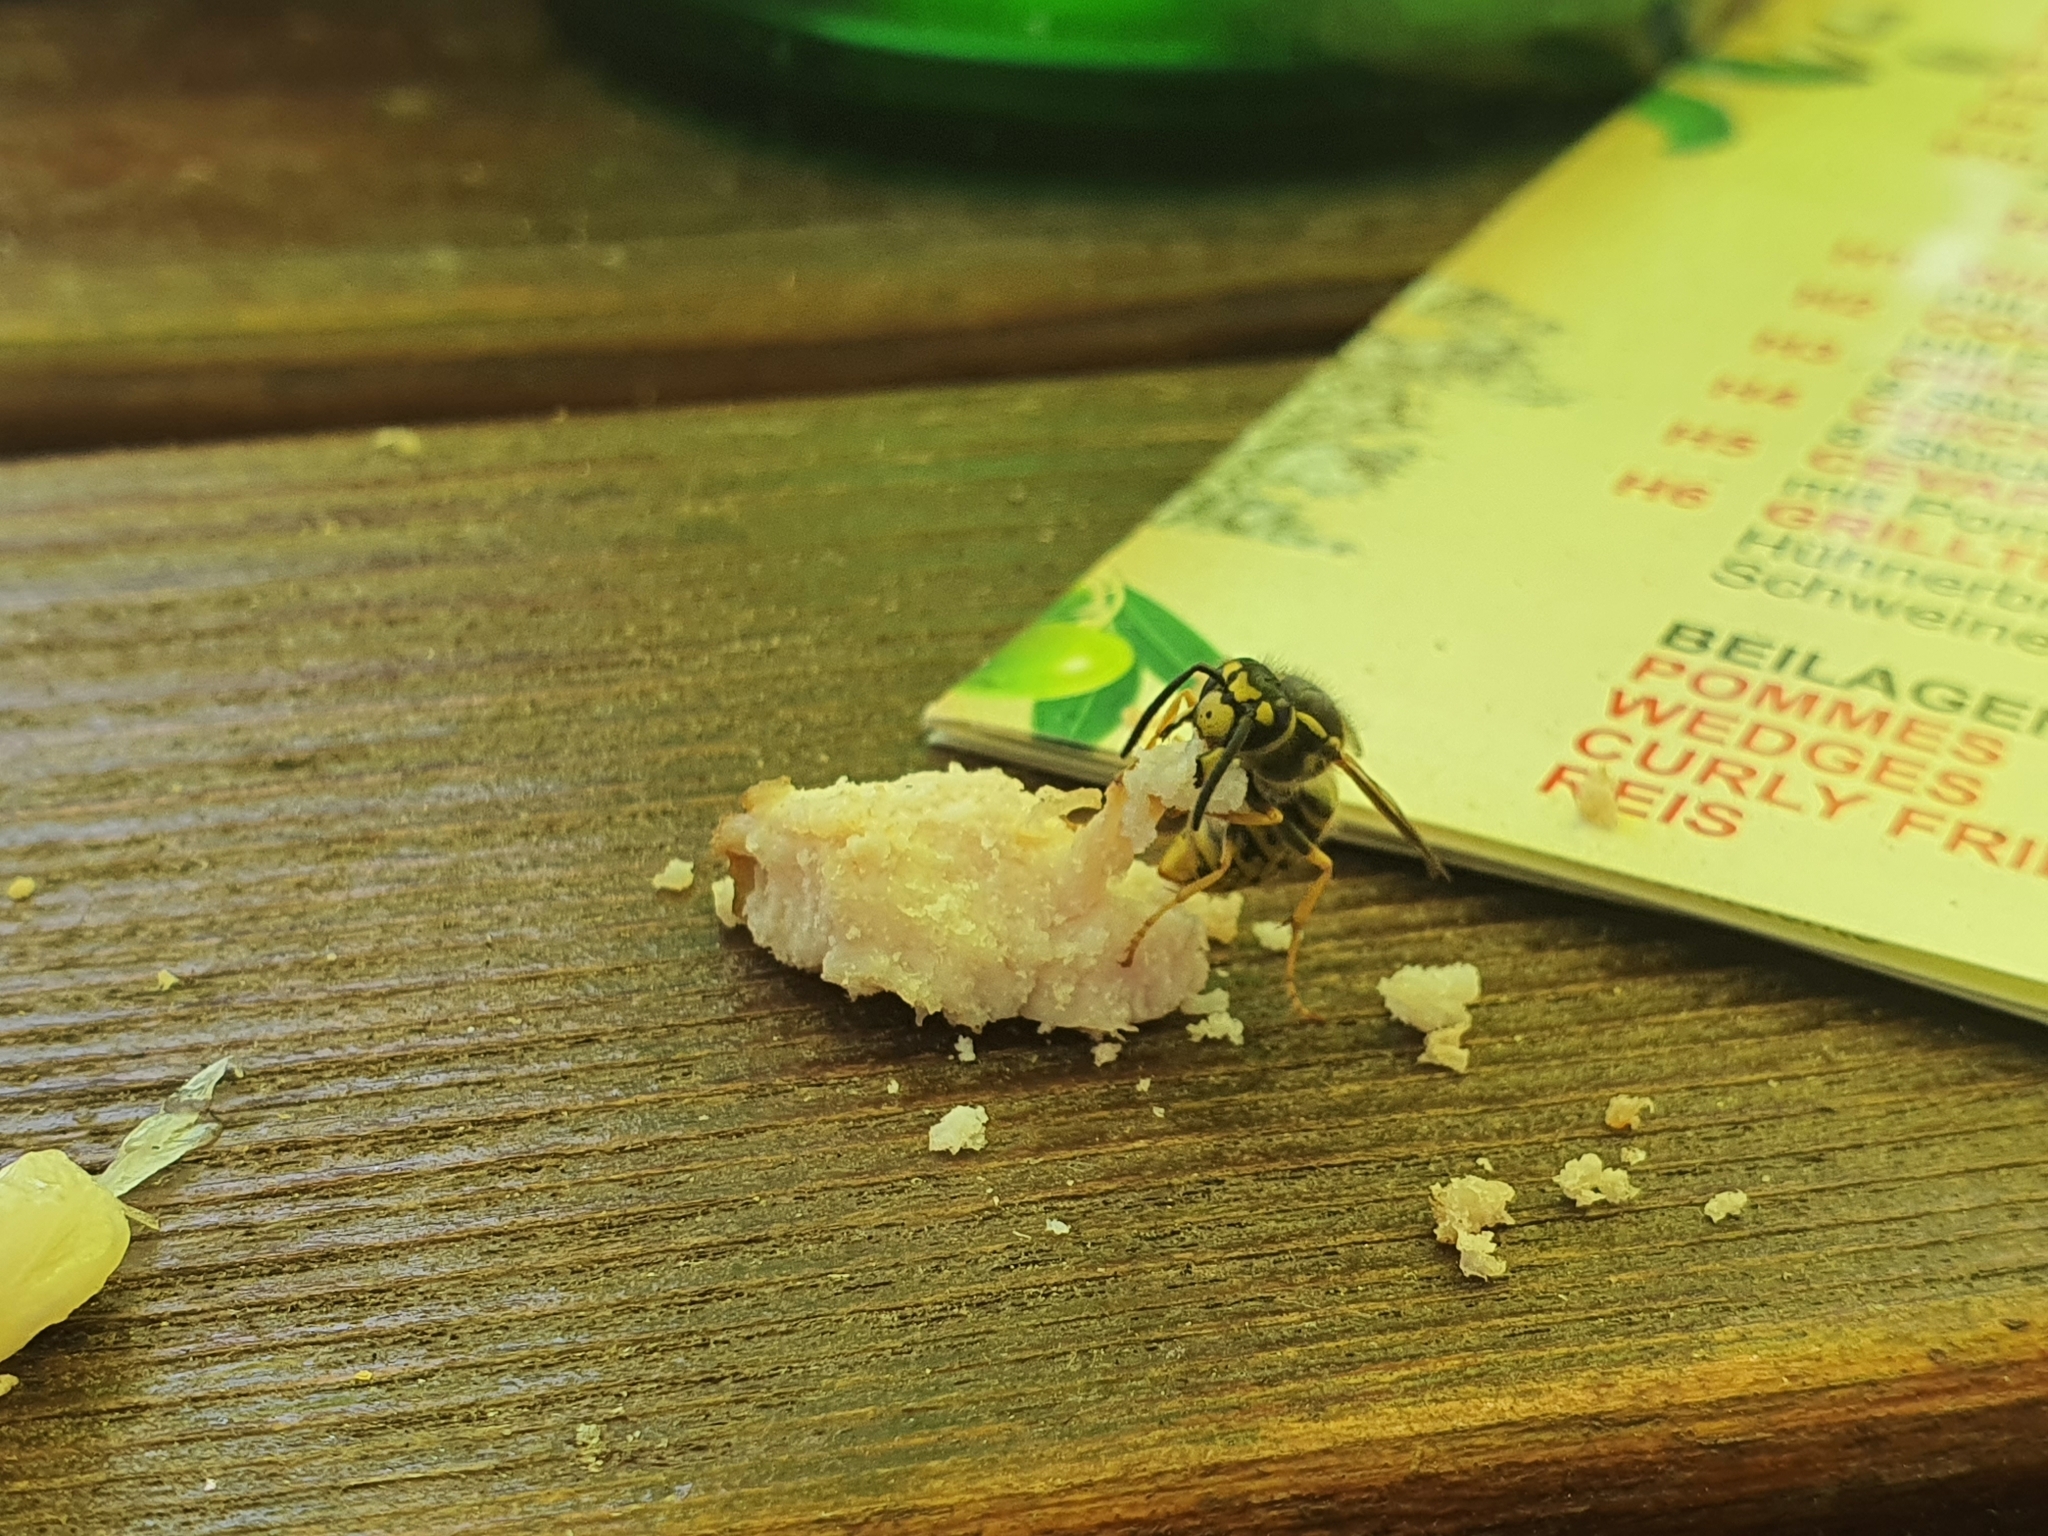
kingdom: Animalia
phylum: Arthropoda
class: Insecta
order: Hymenoptera
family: Vespidae
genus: Vespula
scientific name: Vespula germanica
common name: German wasp
